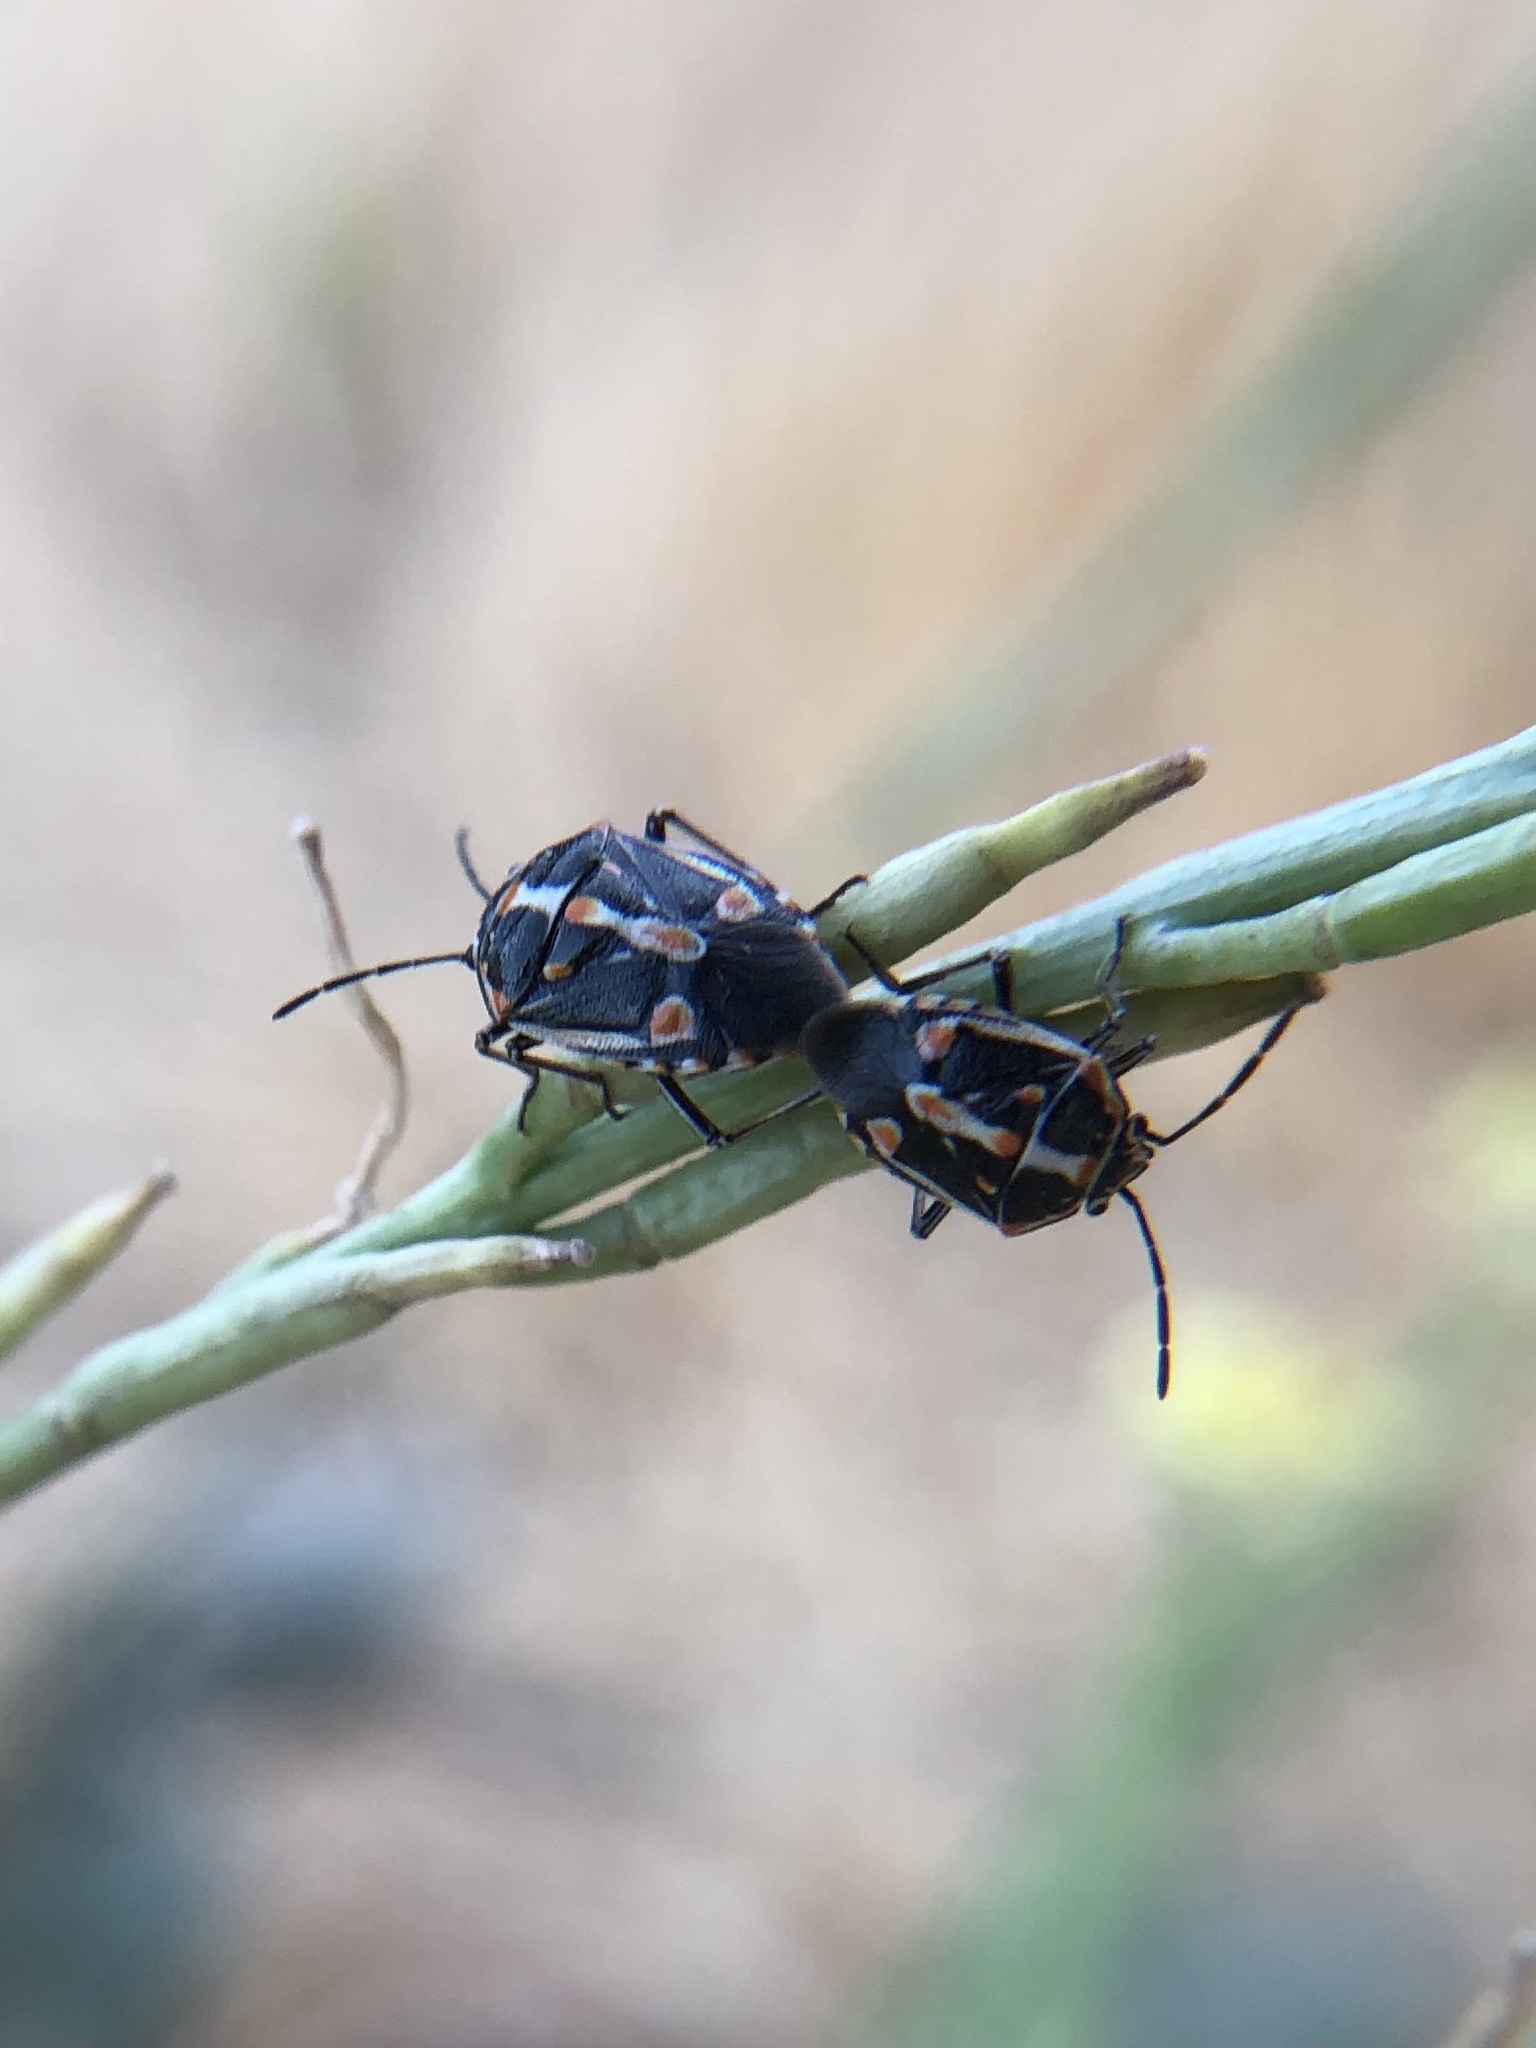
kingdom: Animalia
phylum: Arthropoda
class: Insecta
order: Hemiptera
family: Pentatomidae
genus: Bagrada
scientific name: Bagrada hilaris
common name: Bagrada bug
